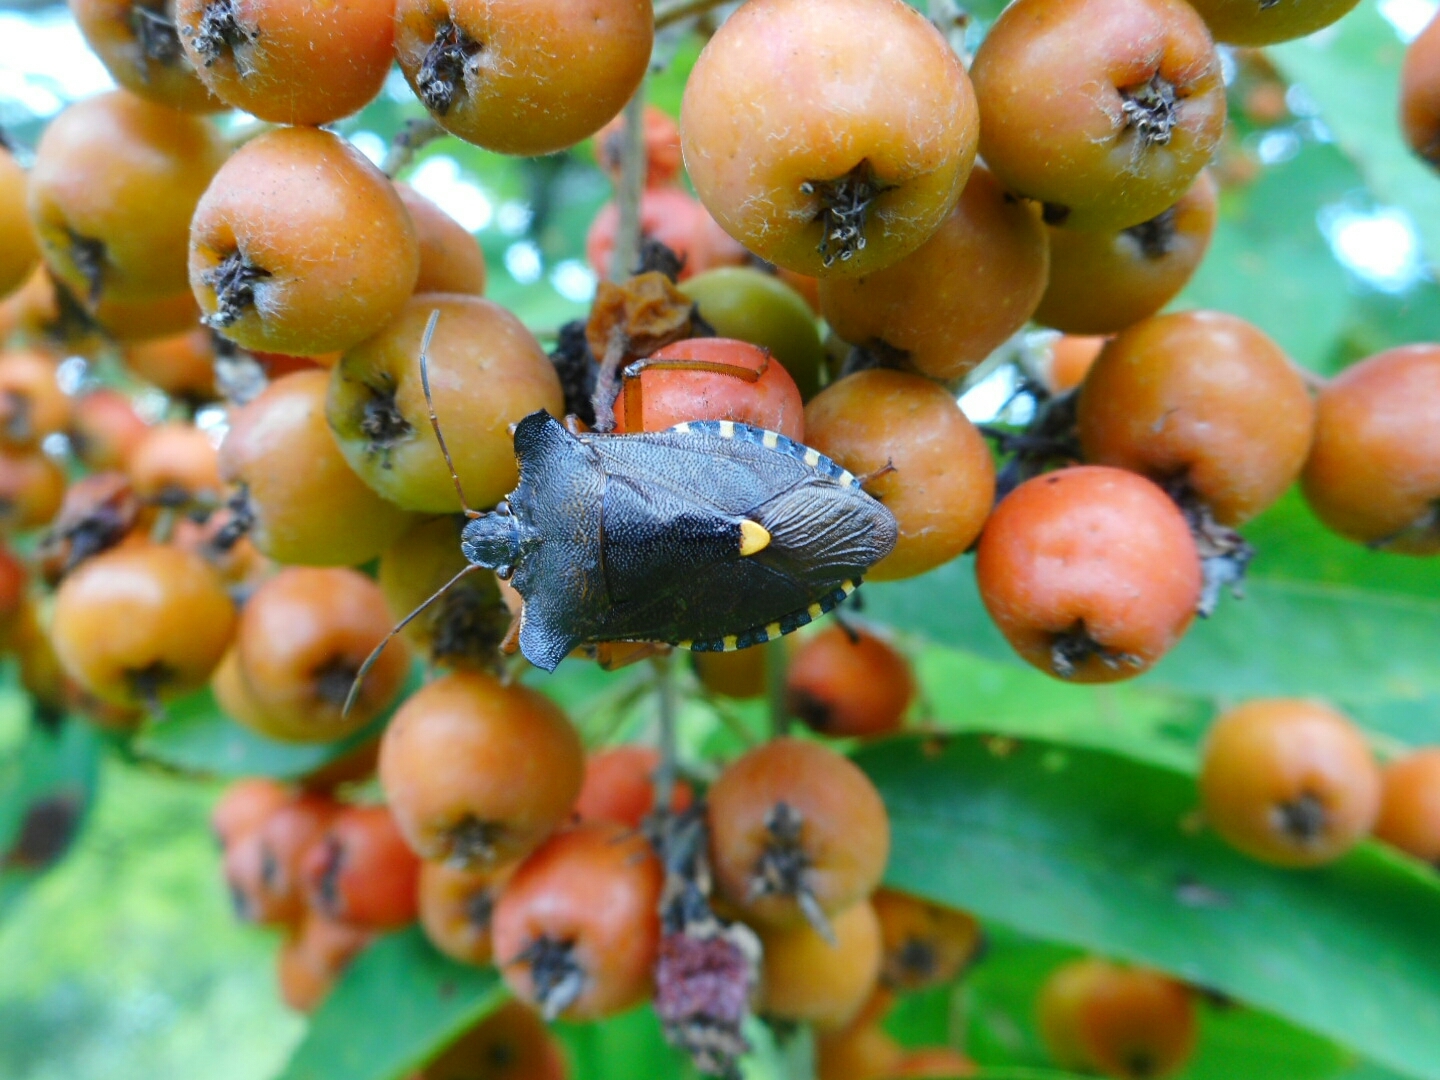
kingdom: Animalia
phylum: Arthropoda
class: Insecta
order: Hemiptera
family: Pentatomidae
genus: Pentatoma
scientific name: Pentatoma rufipes
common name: Forest bug
